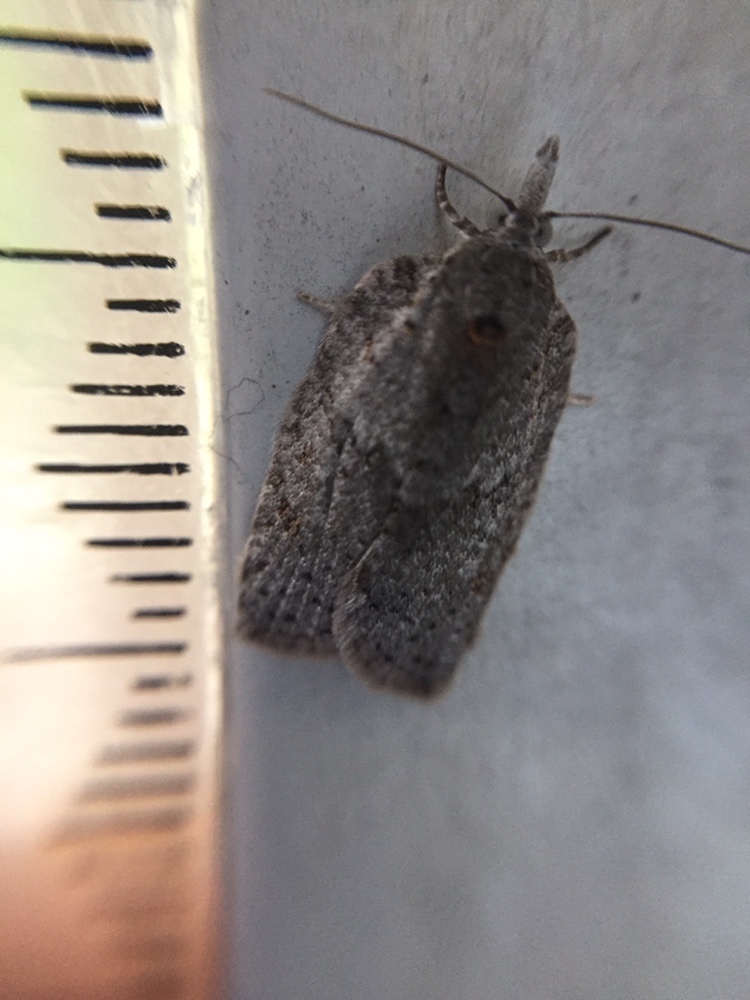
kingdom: Animalia
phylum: Arthropoda
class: Insecta
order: Lepidoptera
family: Tortricidae
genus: Isotenes
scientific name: Isotenes miserana
